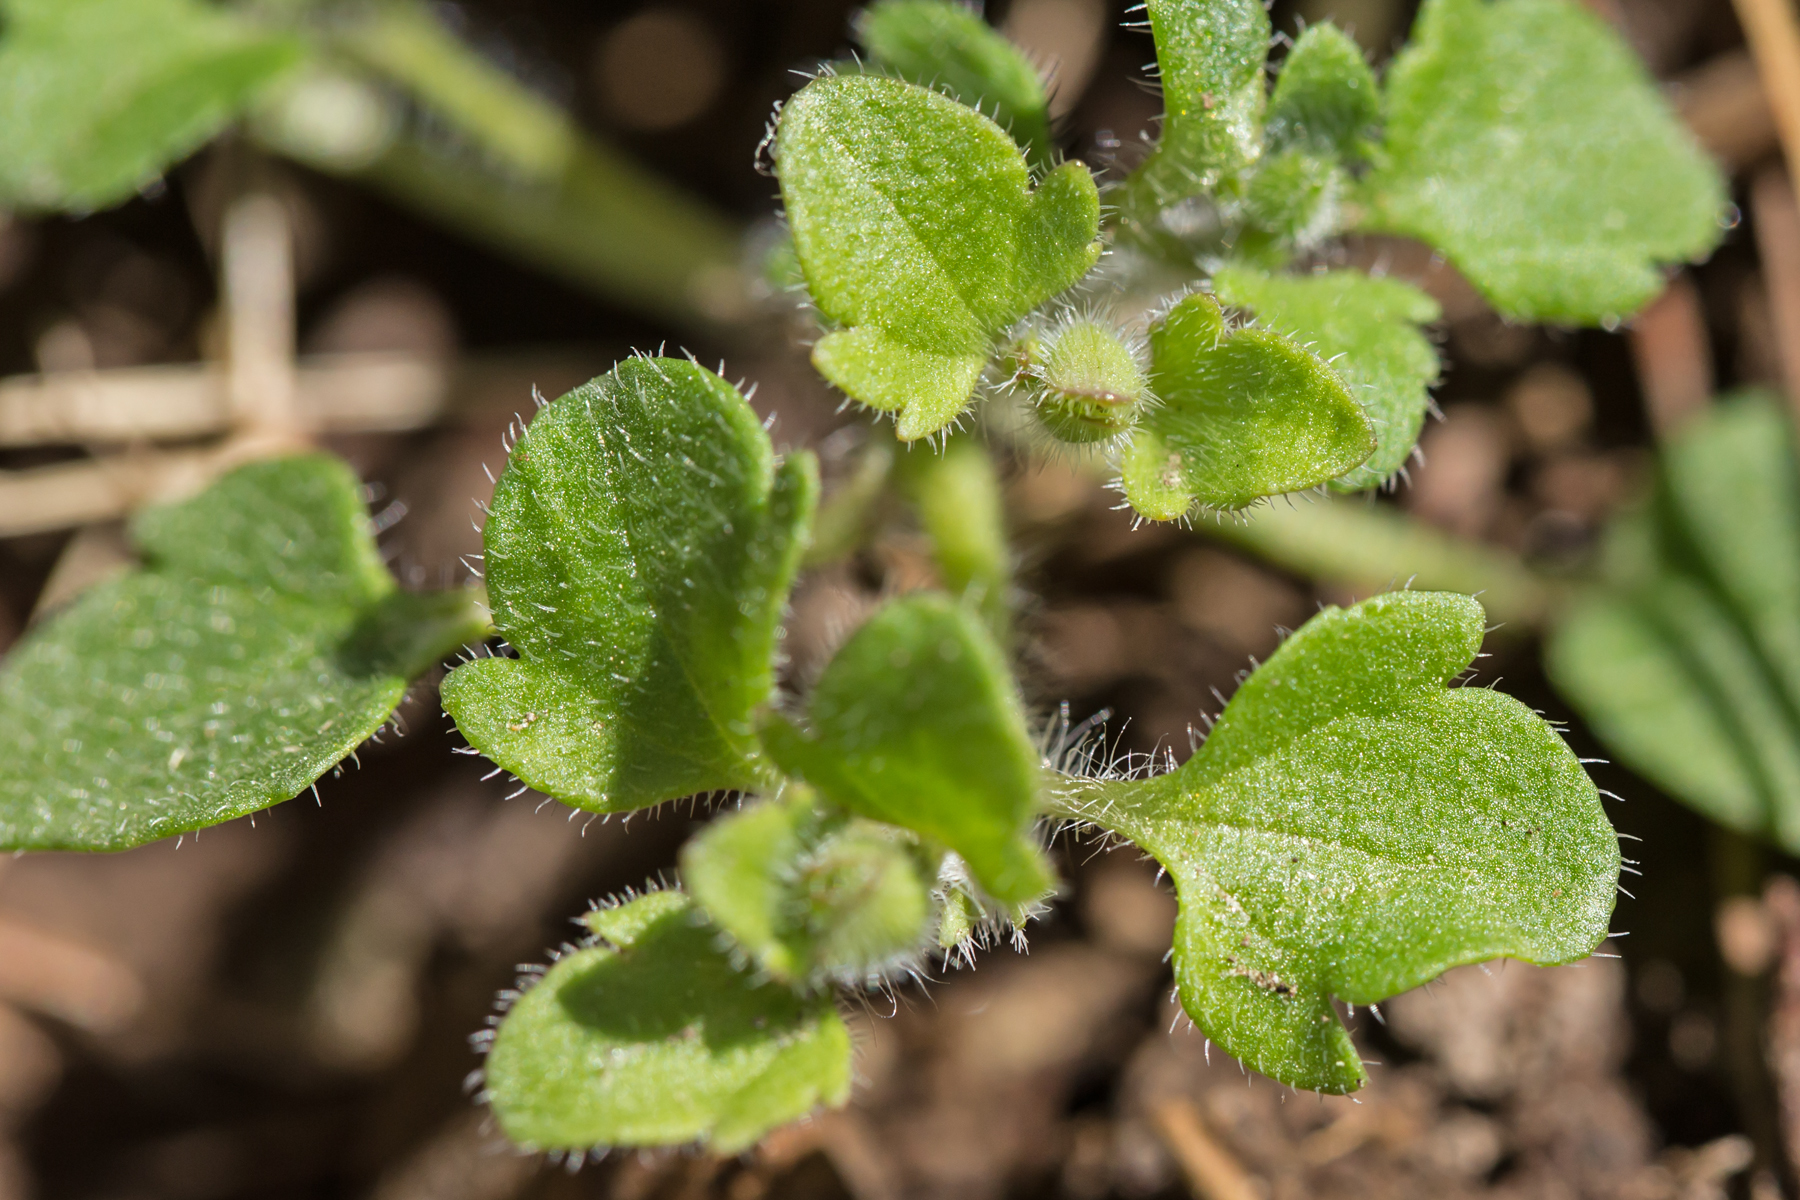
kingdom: Plantae
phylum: Tracheophyta
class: Magnoliopsida
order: Lamiales
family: Plantaginaceae
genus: Veronica
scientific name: Veronica hederifolia
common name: Ivy-leaved speedwell
